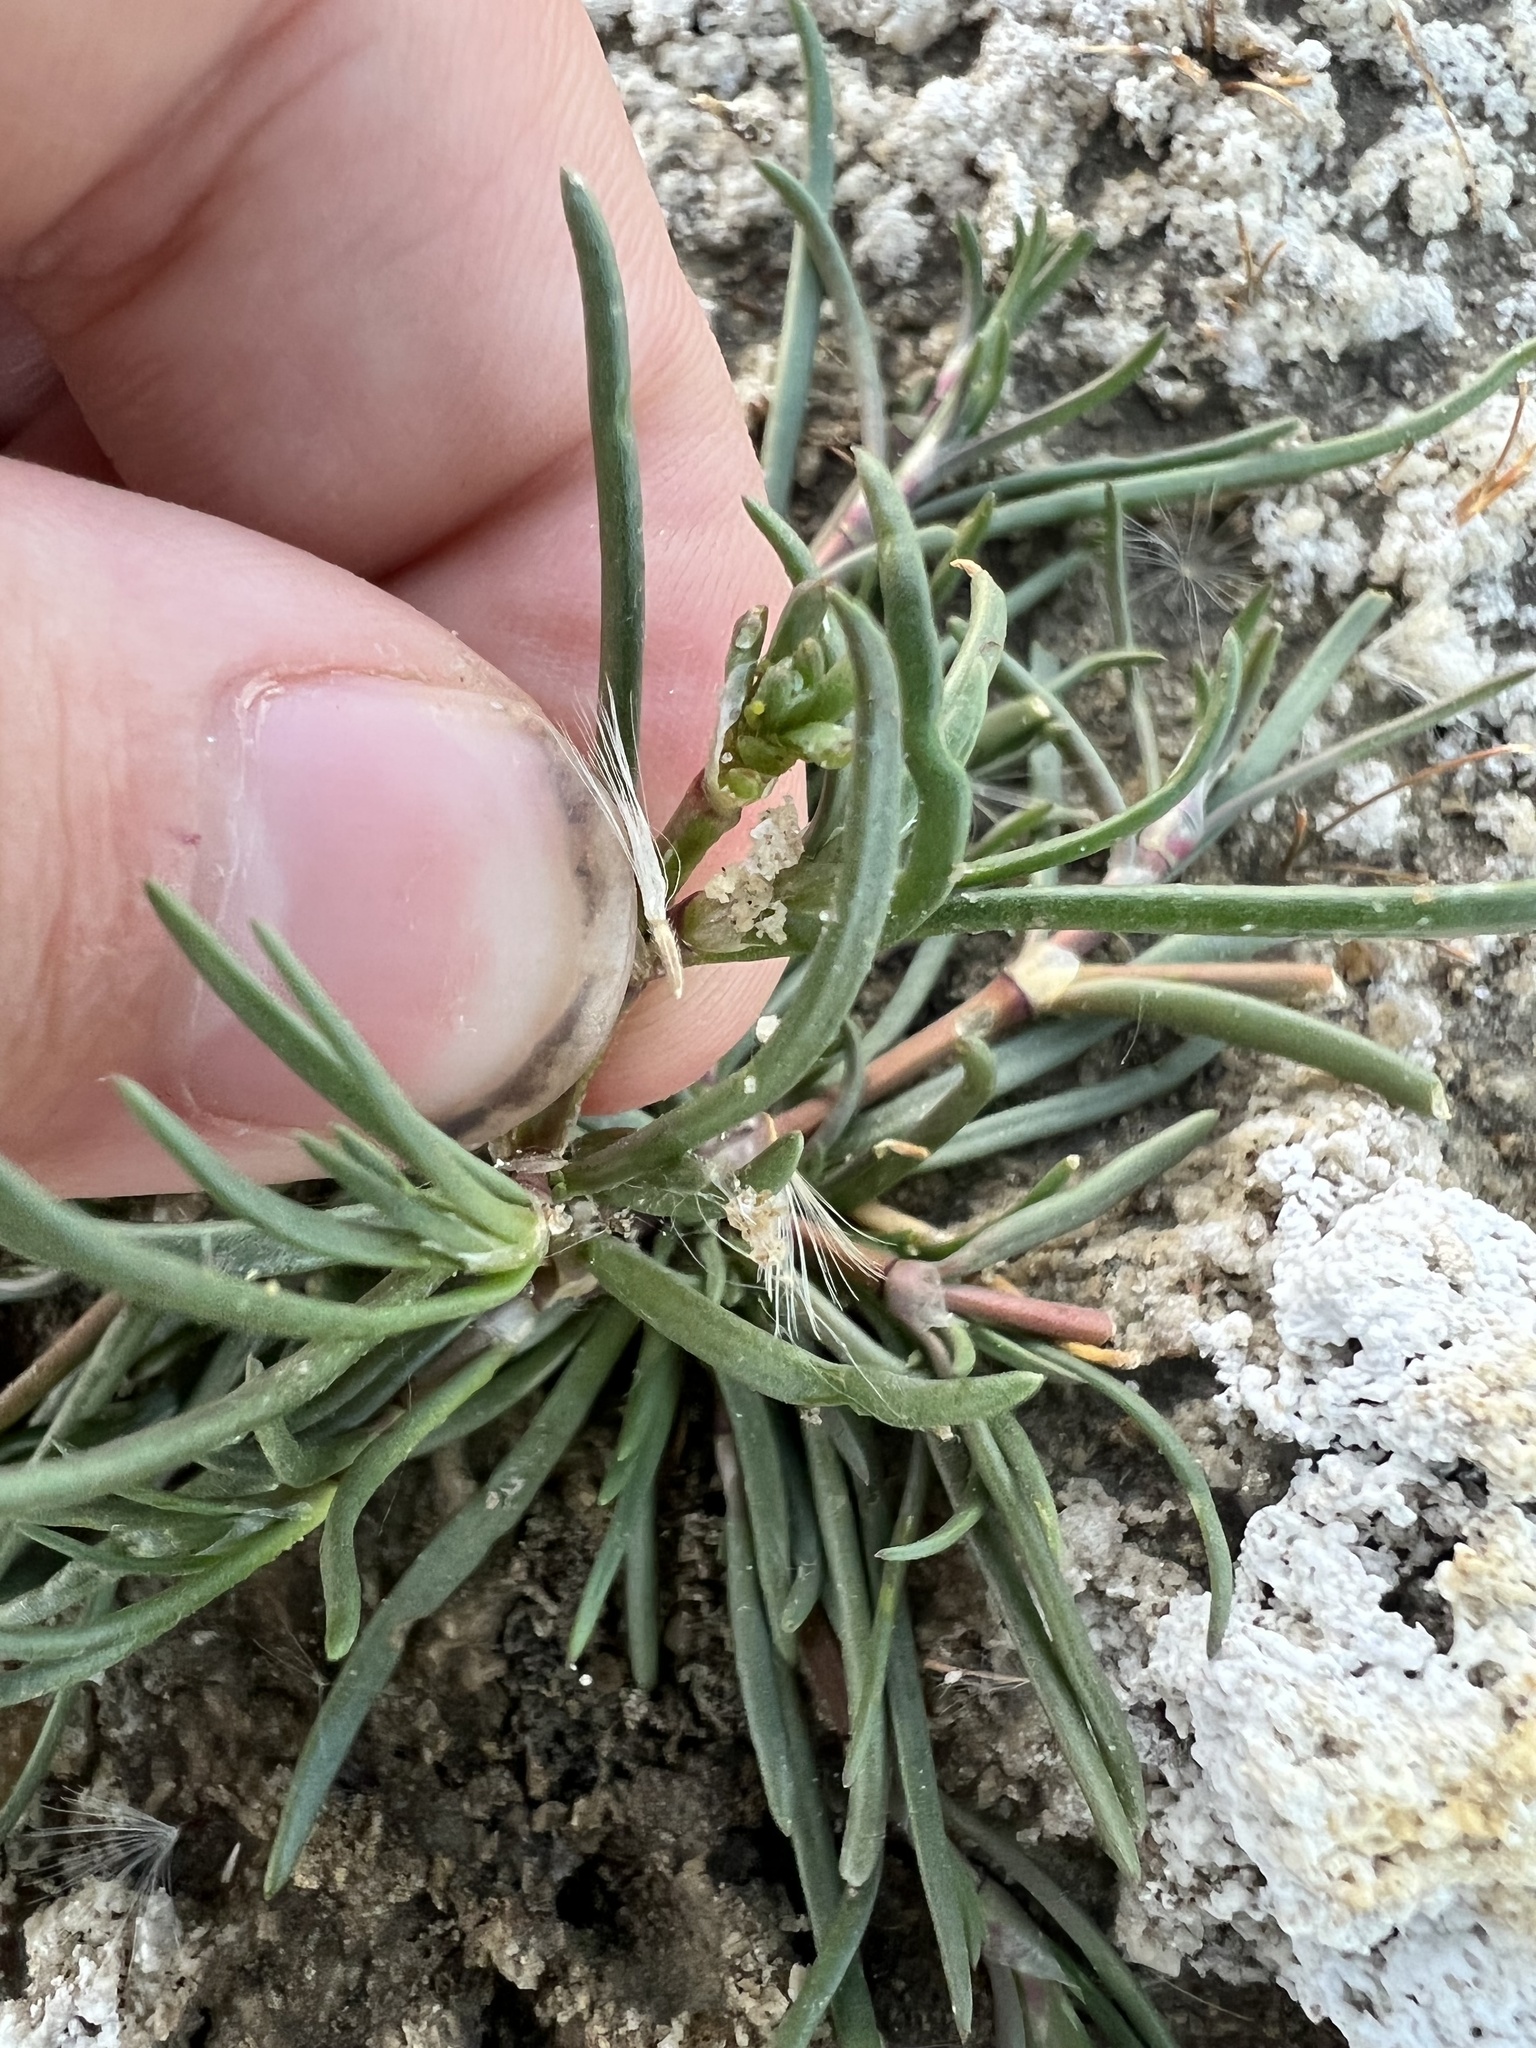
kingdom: Plantae
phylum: Tracheophyta
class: Magnoliopsida
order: Caryophyllales
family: Caryophyllaceae
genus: Spergularia
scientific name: Spergularia marina
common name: Lesser sea-spurrey
